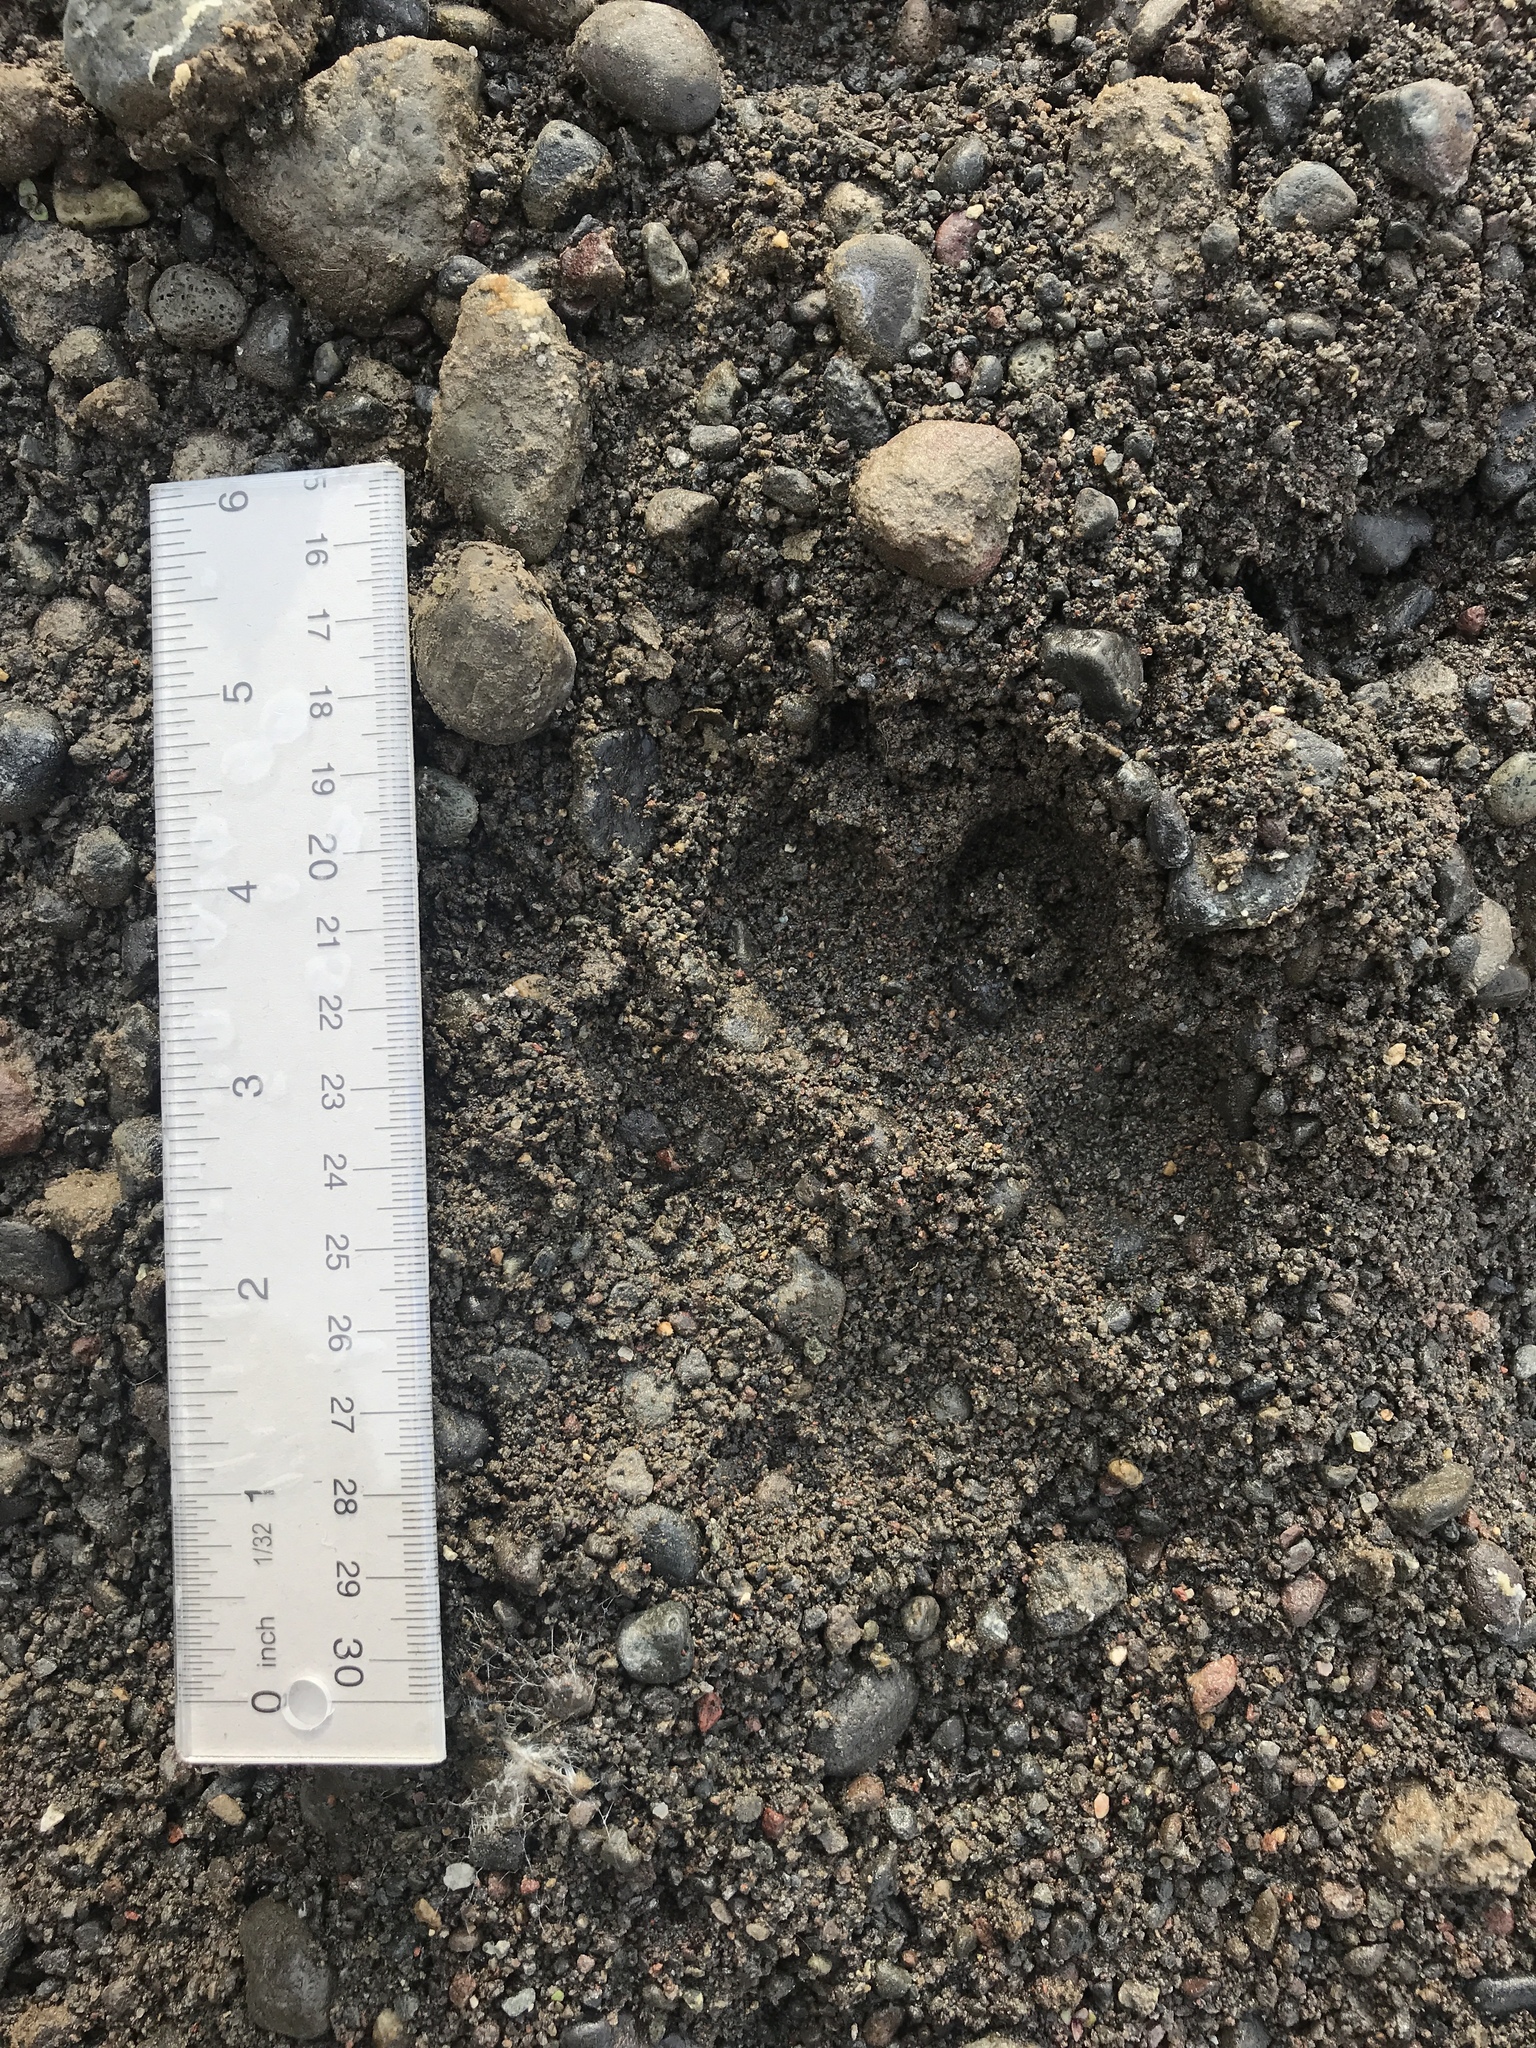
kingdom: Animalia
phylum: Chordata
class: Mammalia
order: Carnivora
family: Canidae
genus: Canis
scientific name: Canis lupus
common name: Gray wolf
